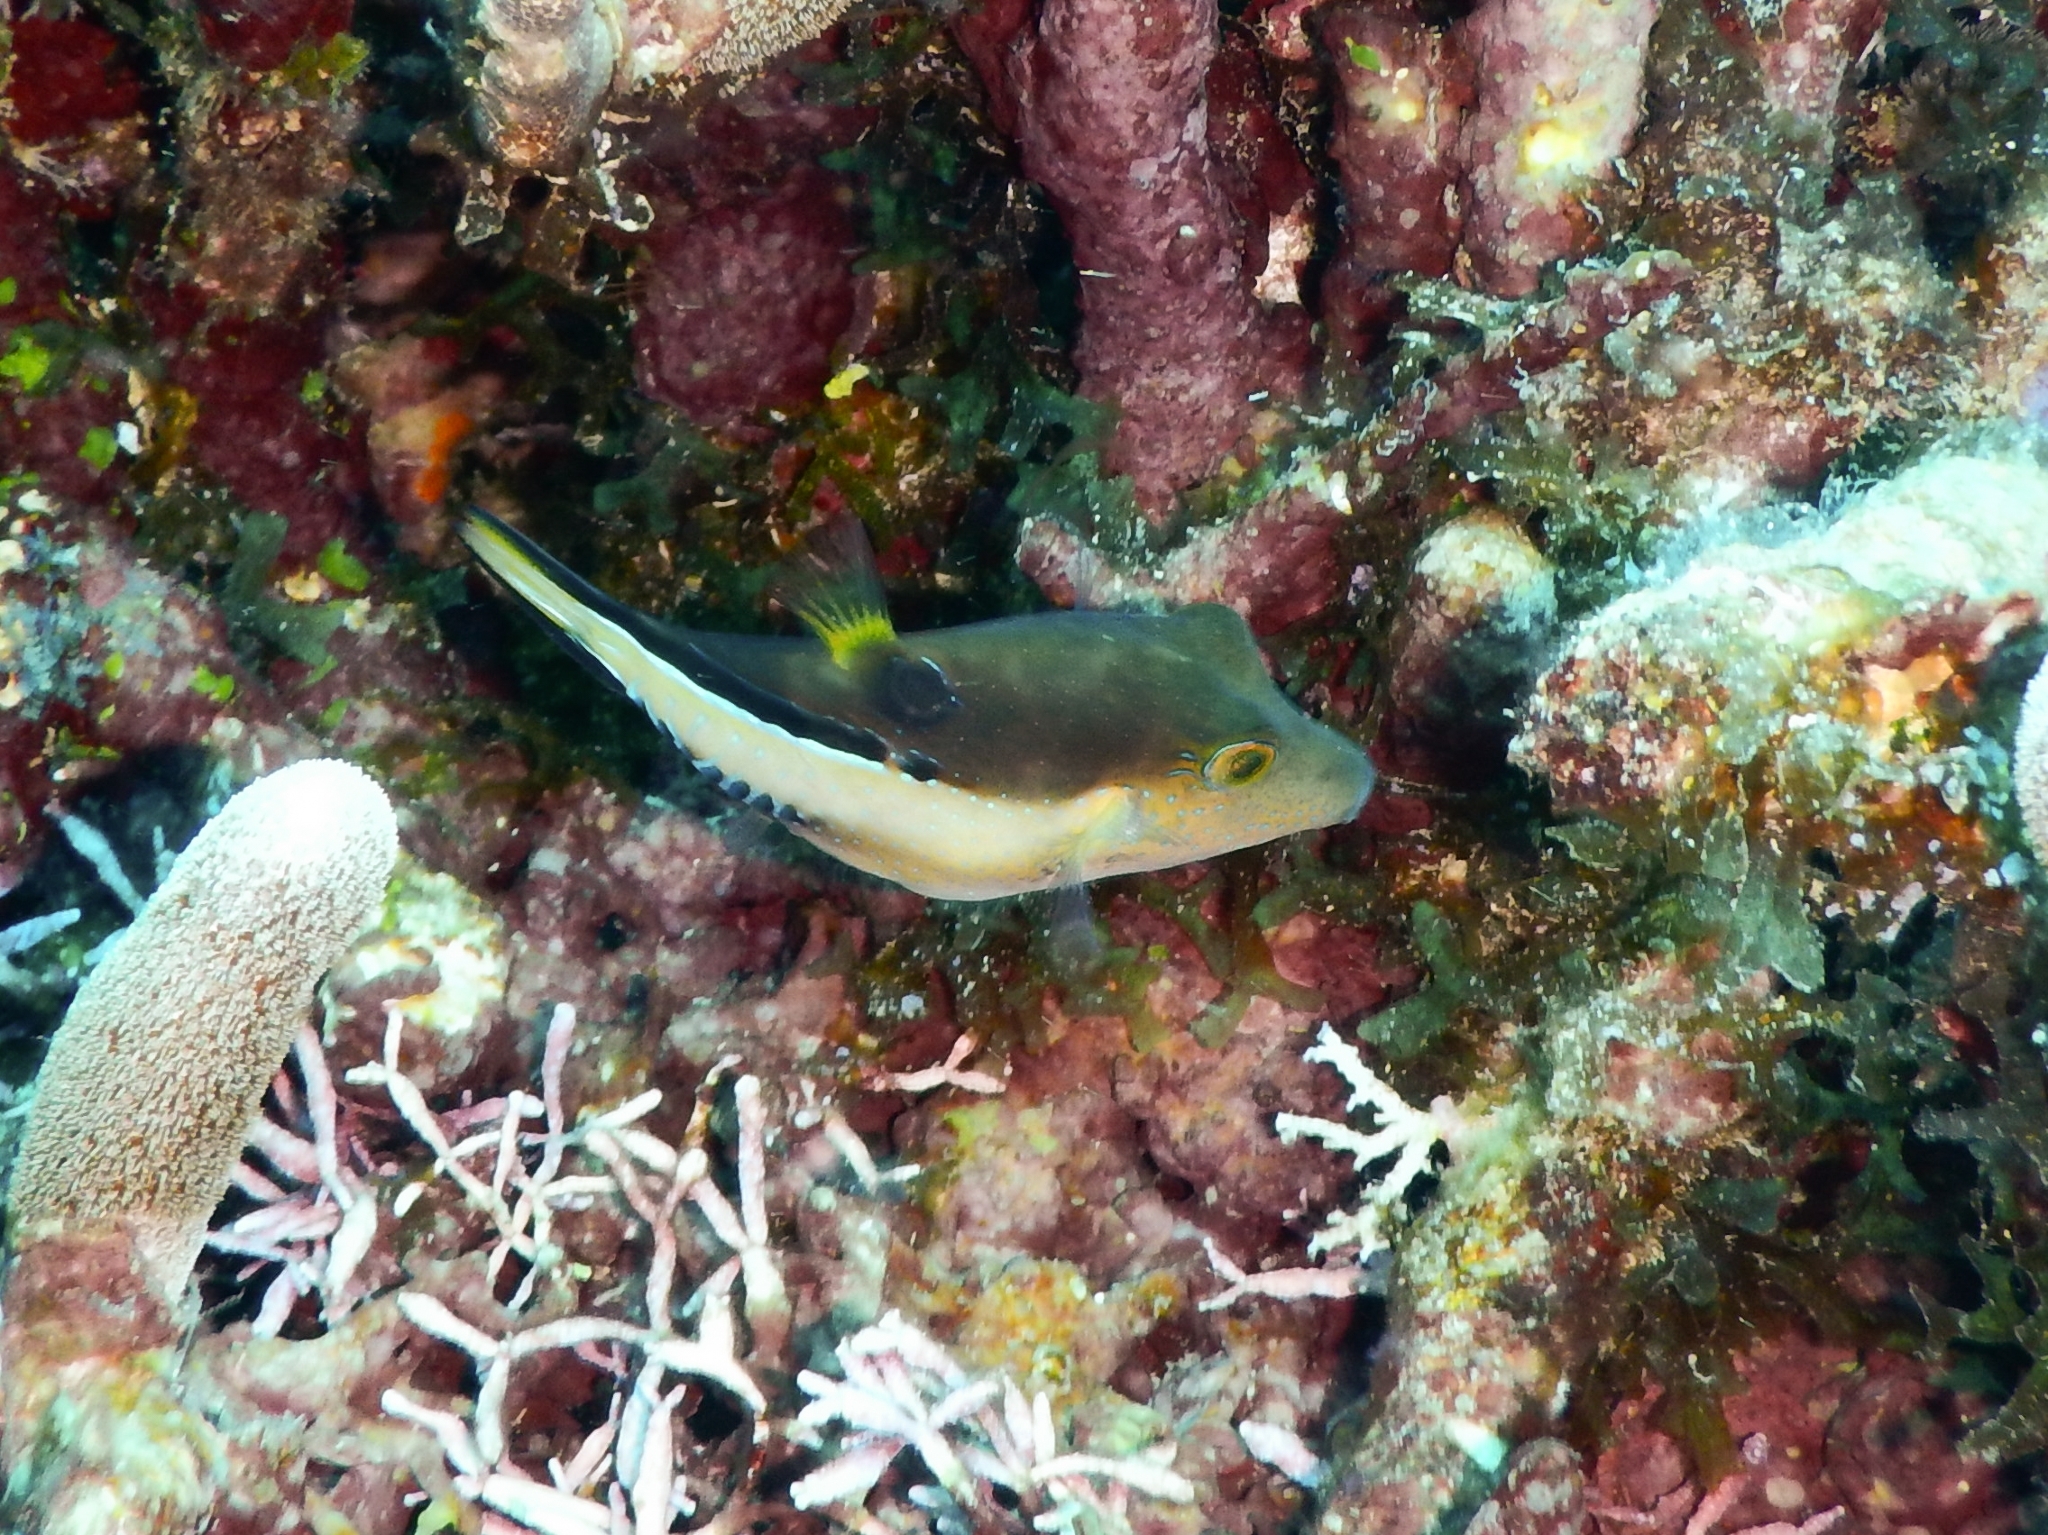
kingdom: Animalia
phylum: Chordata
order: Tetraodontiformes
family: Tetraodontidae
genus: Canthigaster
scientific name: Canthigaster rostrata
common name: Caribbean sharpnose-puffer
